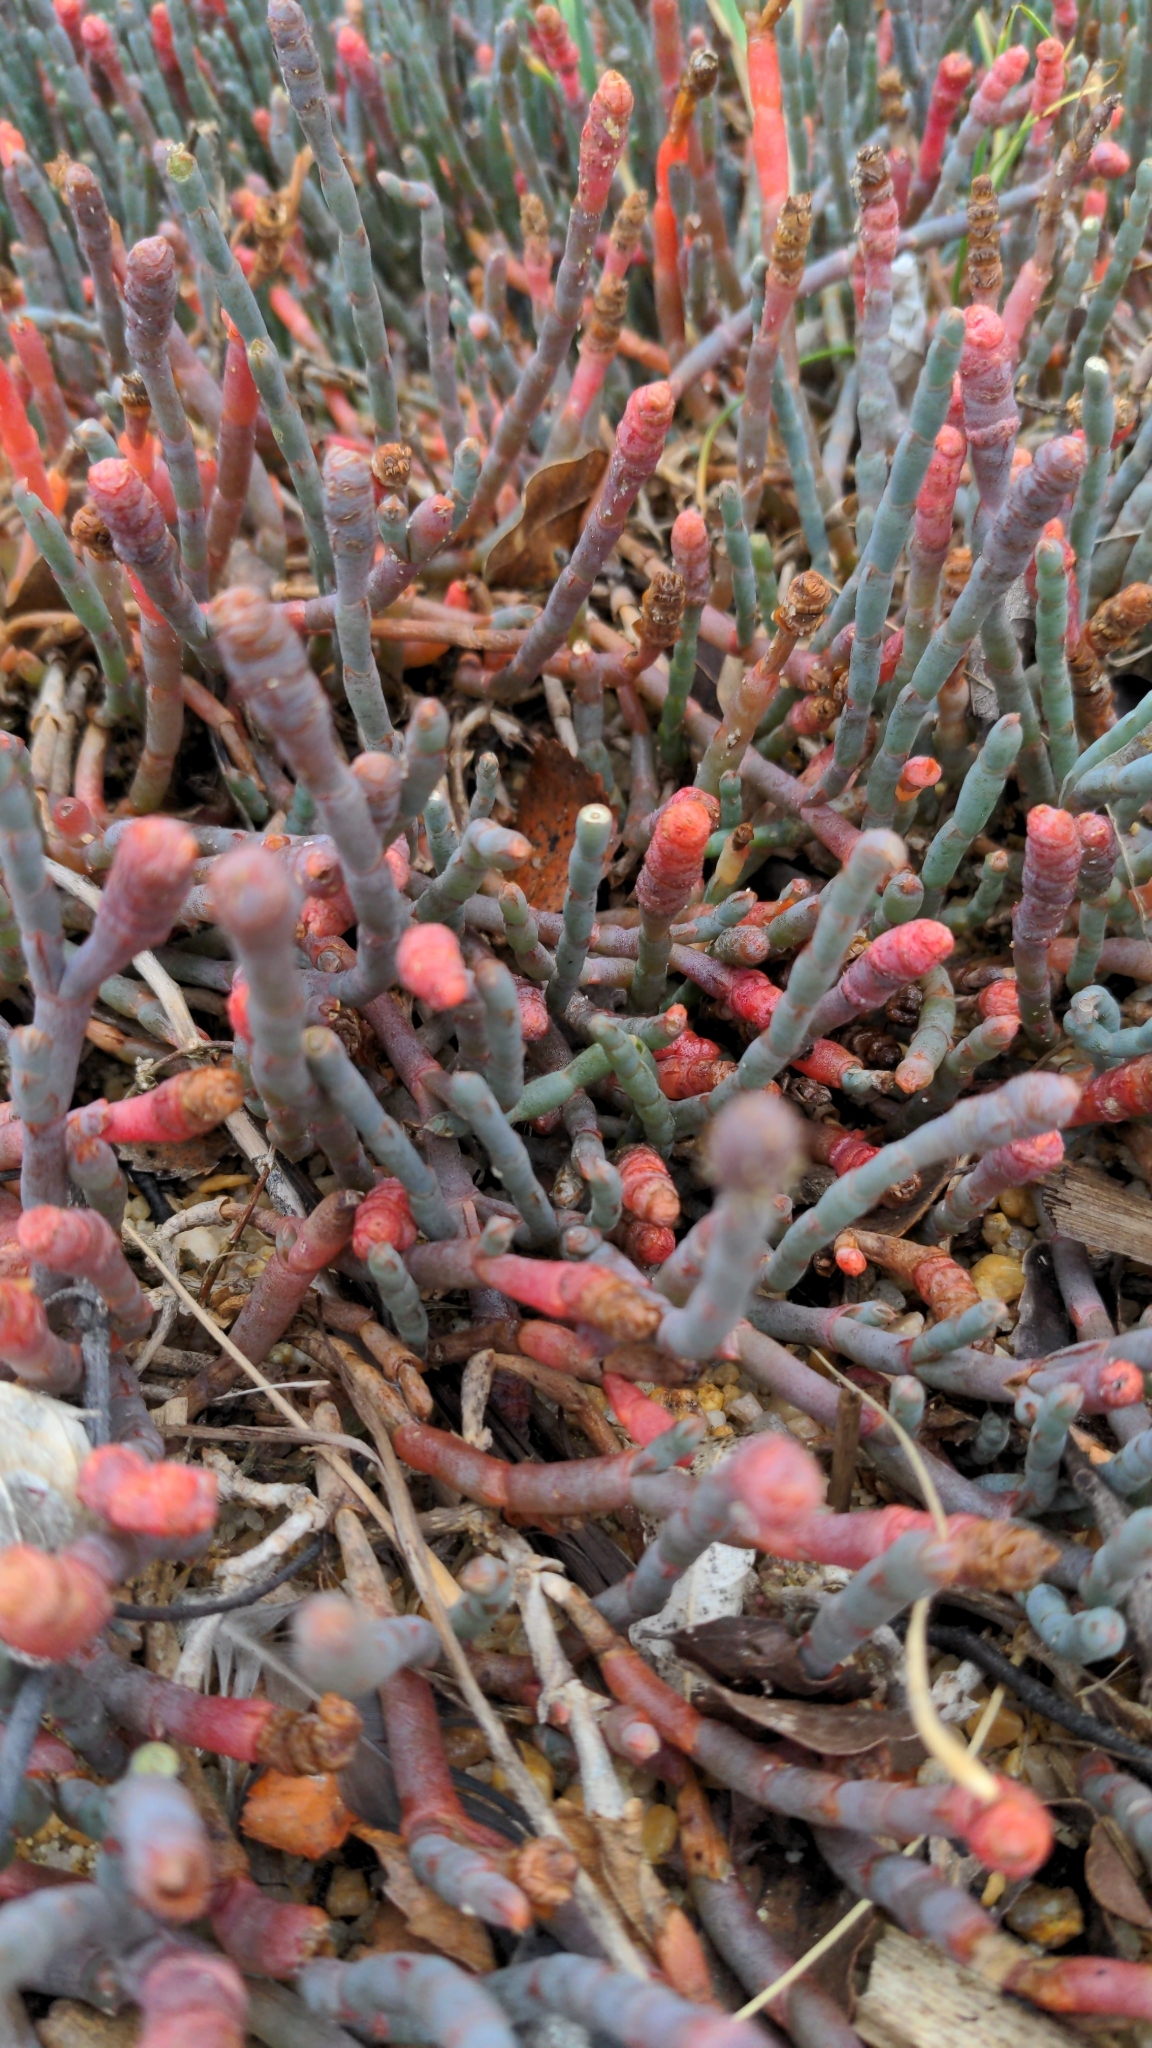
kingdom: Plantae
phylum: Tracheophyta
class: Magnoliopsida
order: Caryophyllales
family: Amaranthaceae
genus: Salicornia
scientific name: Salicornia quinqueflora
